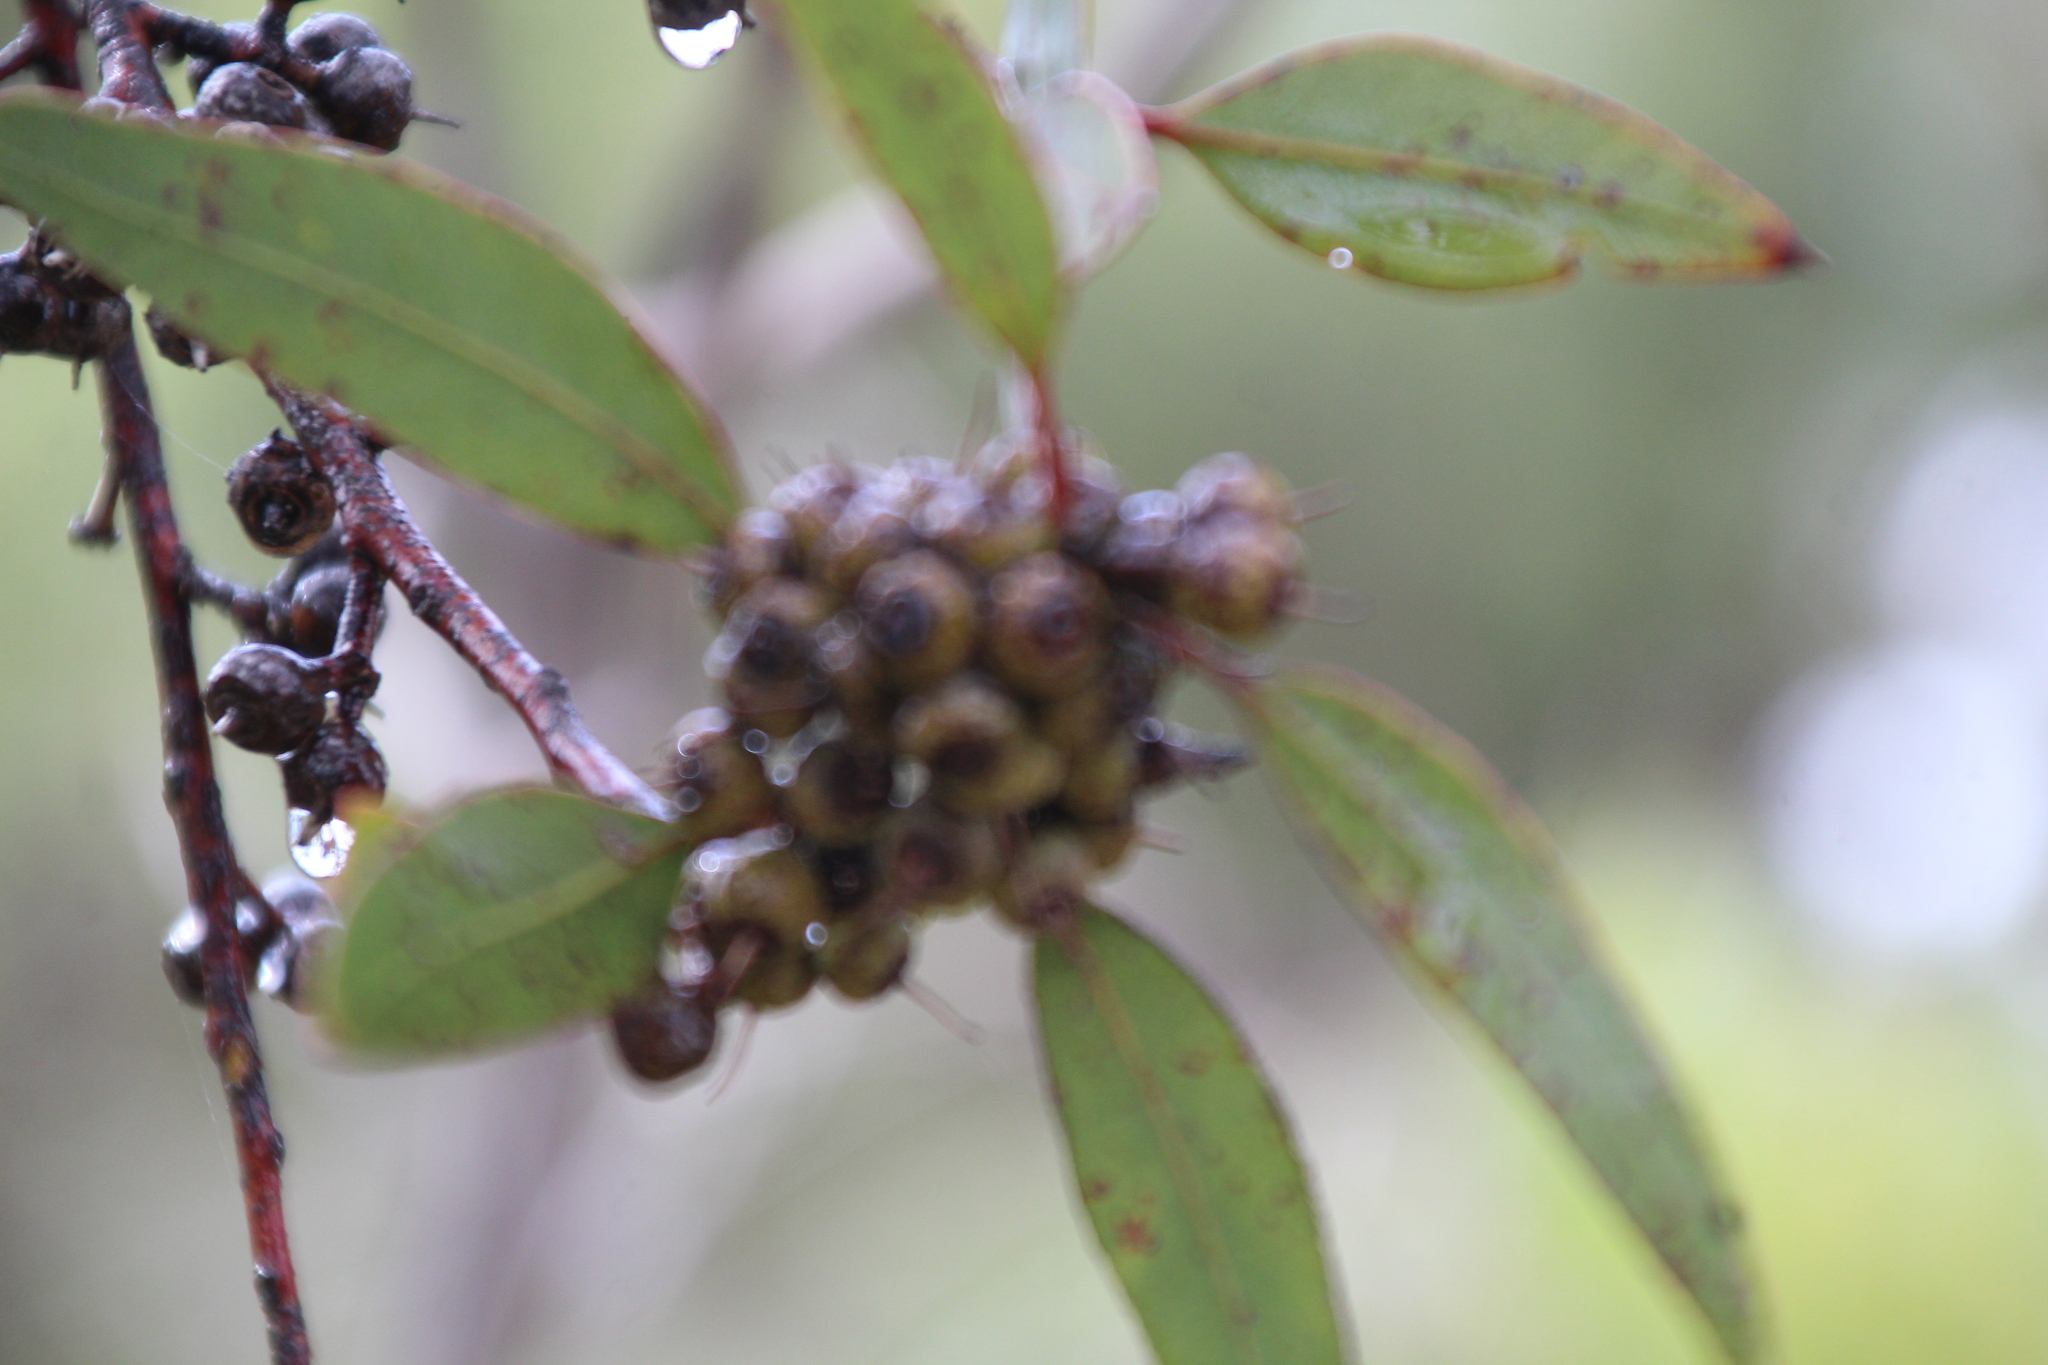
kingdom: Plantae
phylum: Tracheophyta
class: Magnoliopsida
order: Myrtales
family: Myrtaceae
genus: Eucalyptus
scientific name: Eucalyptus petrensis
